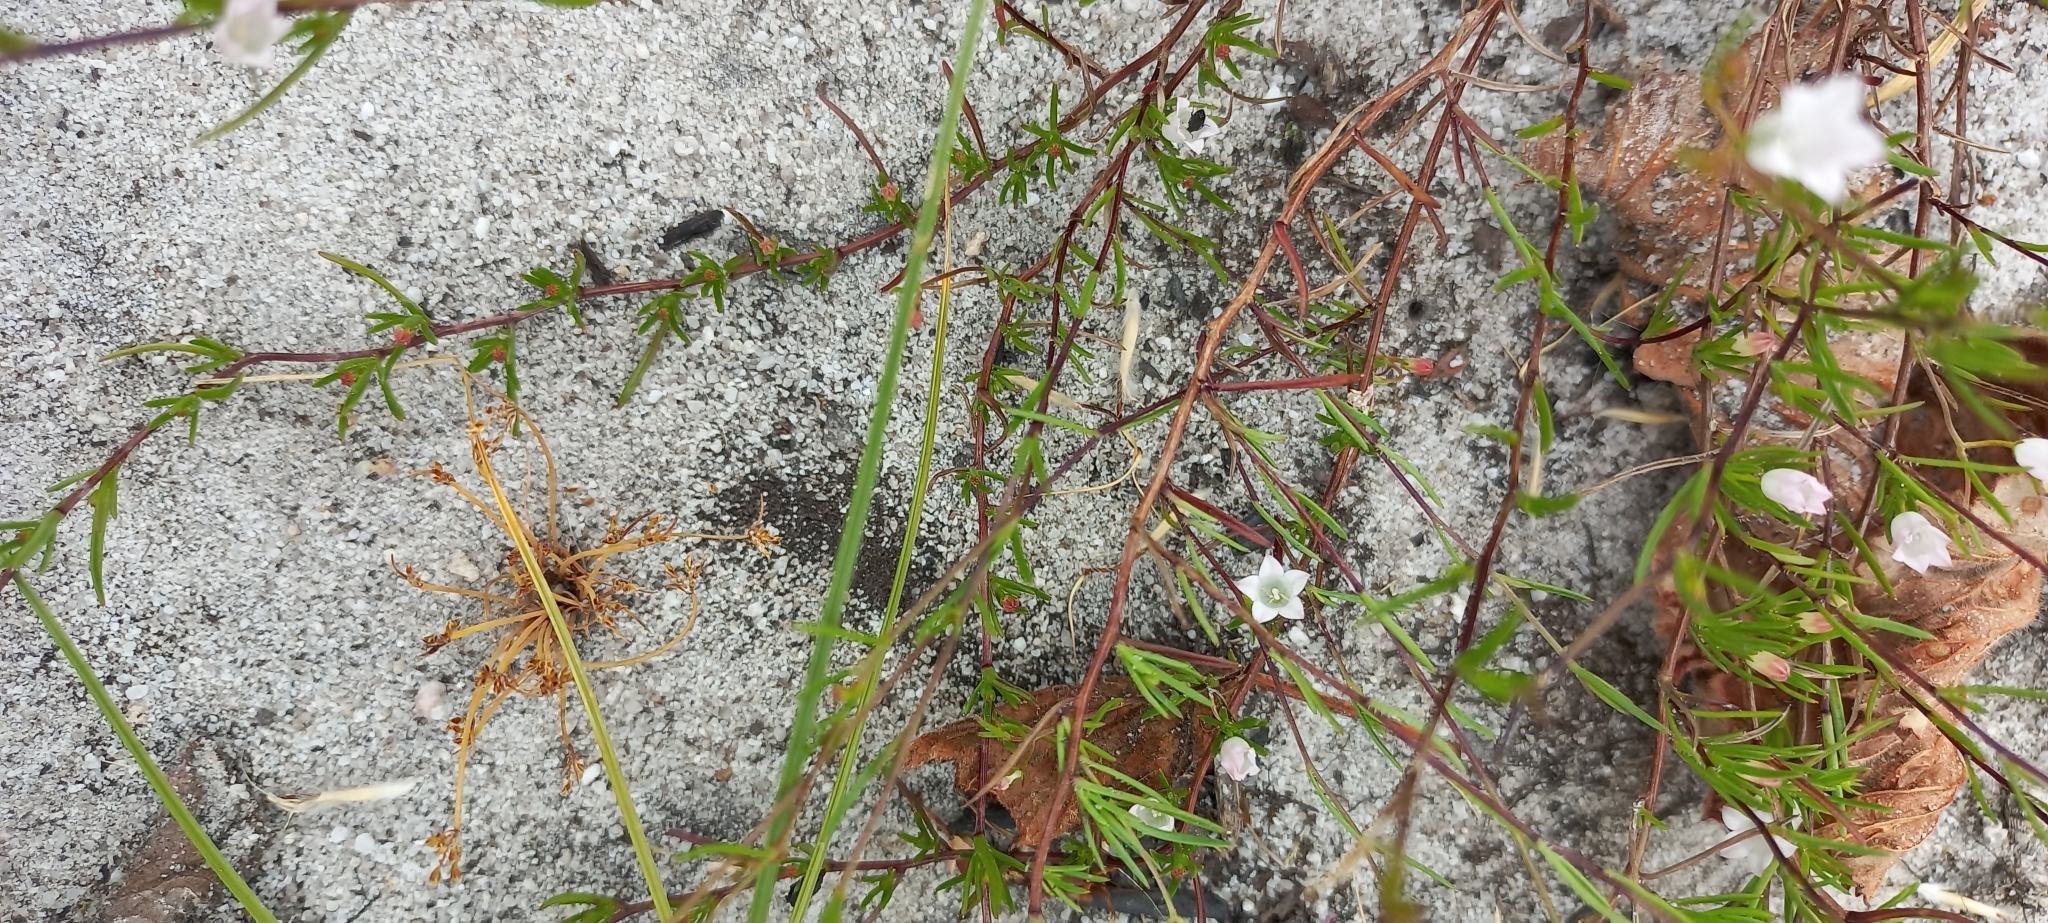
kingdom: Plantae
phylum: Tracheophyta
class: Magnoliopsida
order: Asterales
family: Campanulaceae
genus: Prismatocarpus
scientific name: Prismatocarpus sessilis
